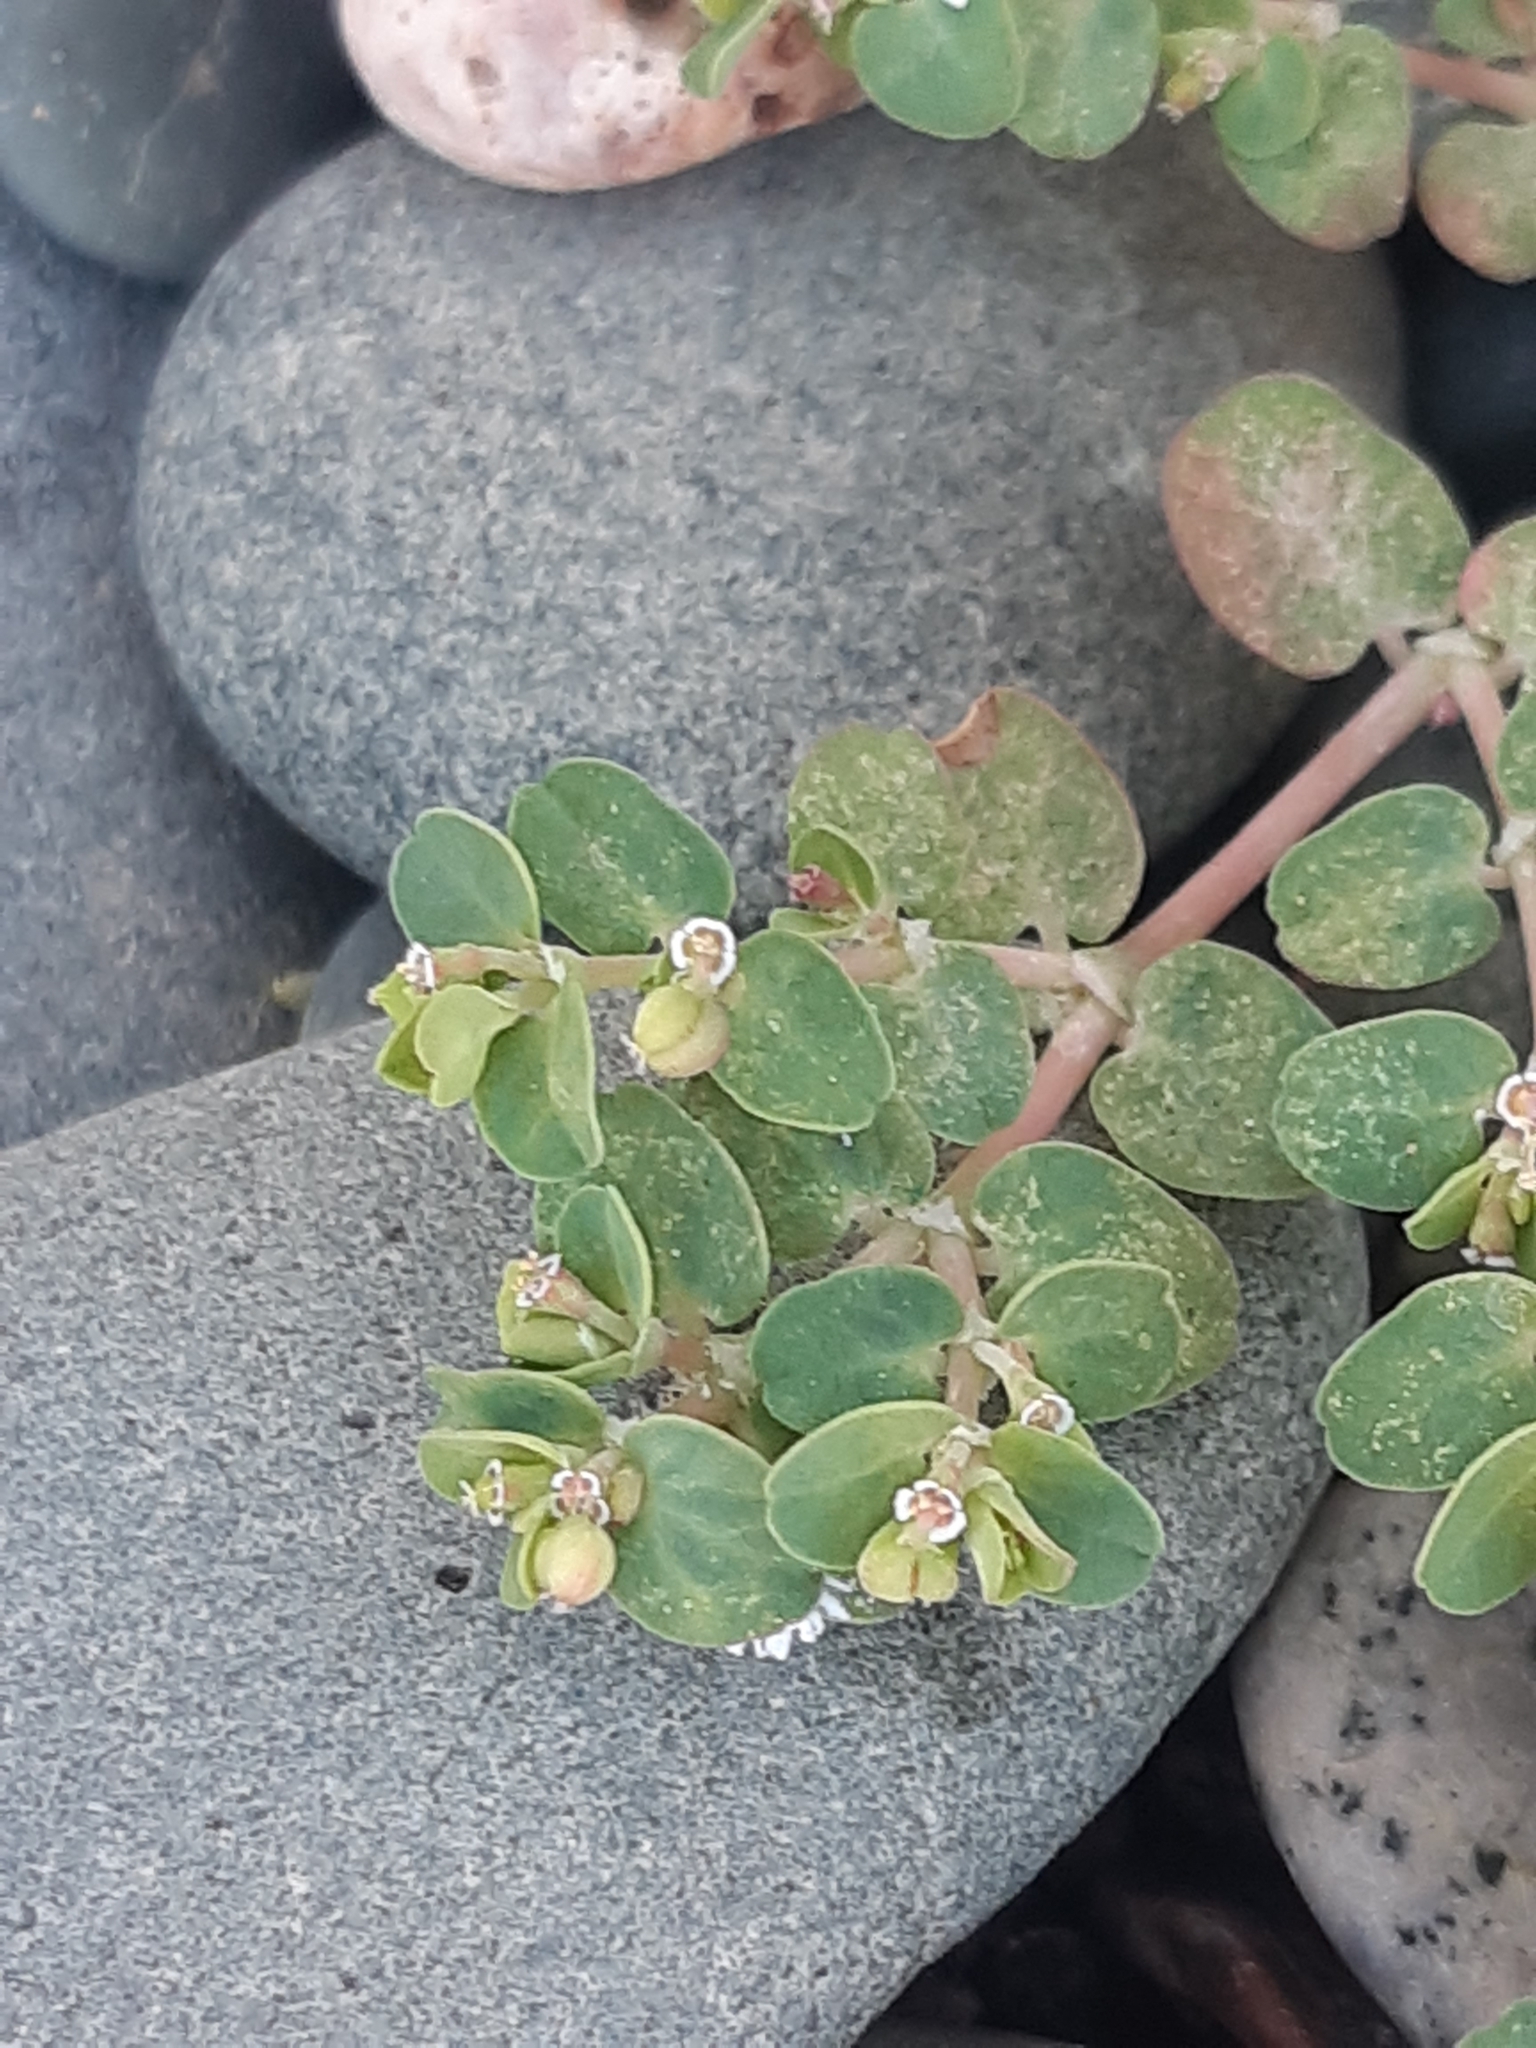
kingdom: Plantae
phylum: Tracheophyta
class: Magnoliopsida
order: Malpighiales
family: Euphorbiaceae
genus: Euphorbia
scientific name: Euphorbia serpens
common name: Matted sandmat
